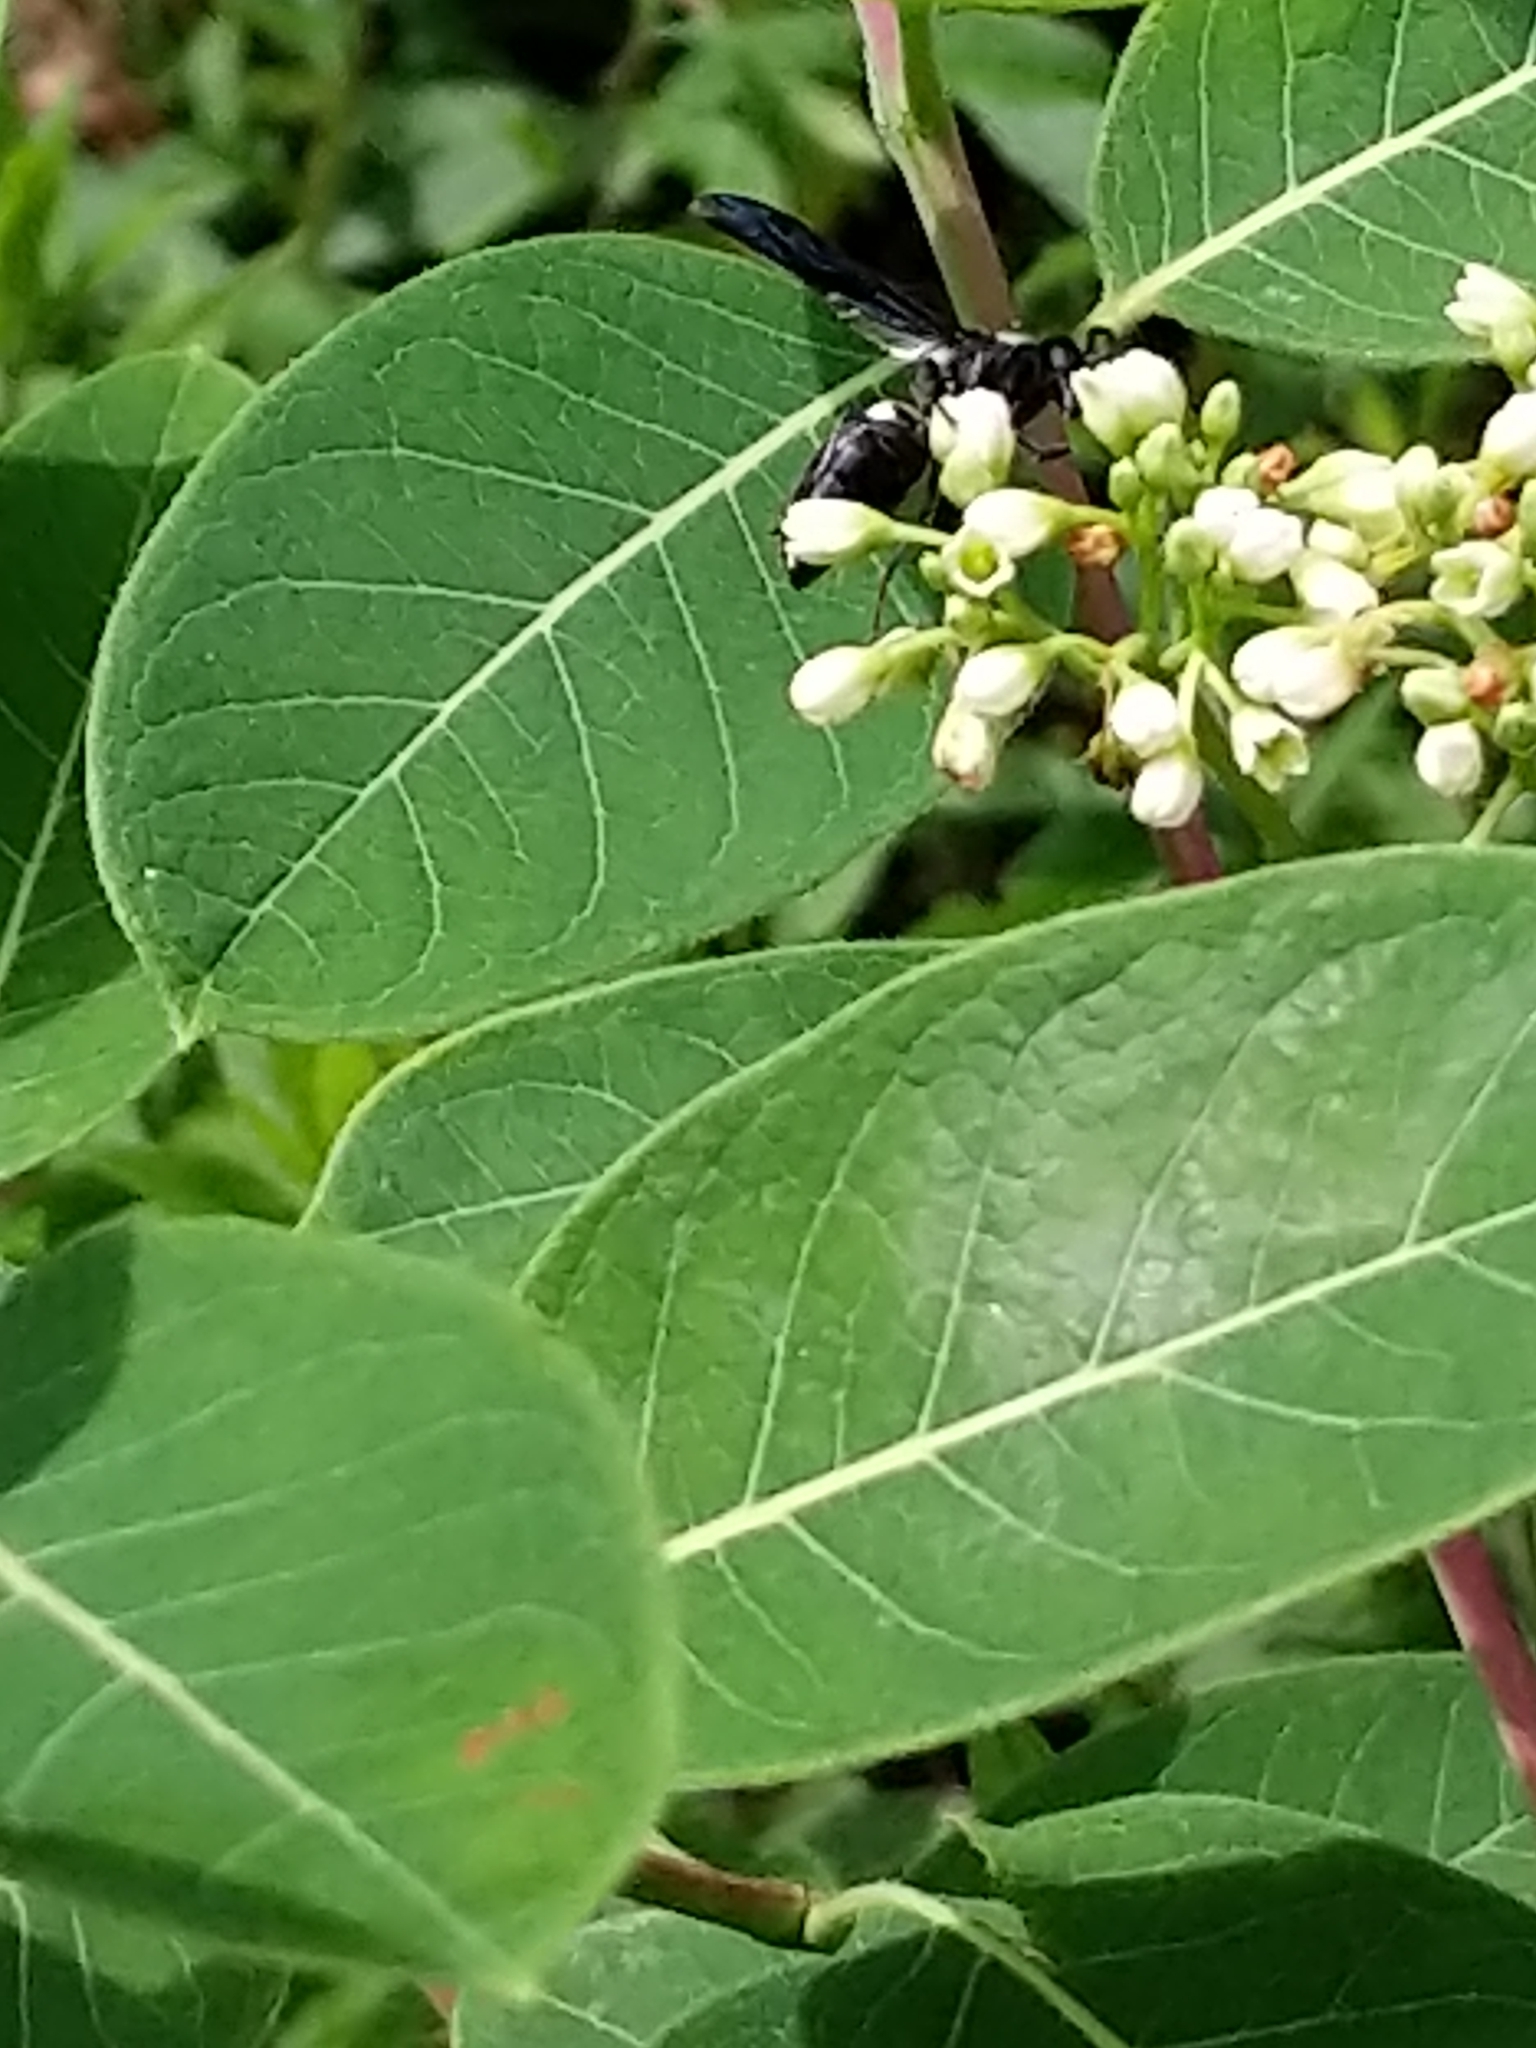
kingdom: Animalia
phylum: Arthropoda
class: Insecta
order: Hymenoptera
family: Eumenidae
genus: Monobia
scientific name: Monobia quadridens
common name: Four-toothed mason wasp
